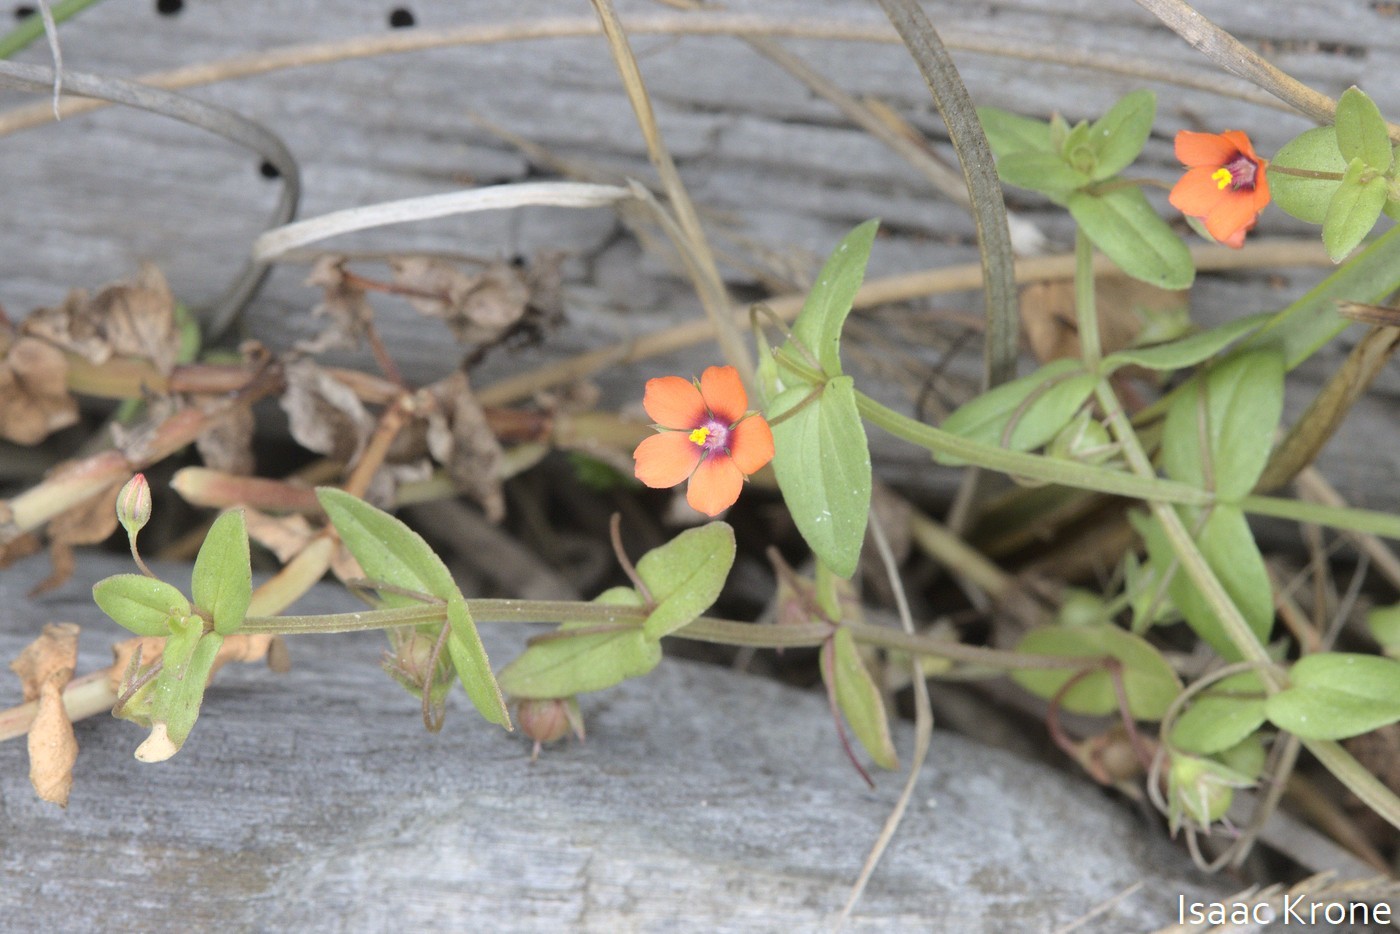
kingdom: Plantae
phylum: Tracheophyta
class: Magnoliopsida
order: Ericales
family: Primulaceae
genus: Lysimachia
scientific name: Lysimachia arvensis
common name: Scarlet pimpernel
